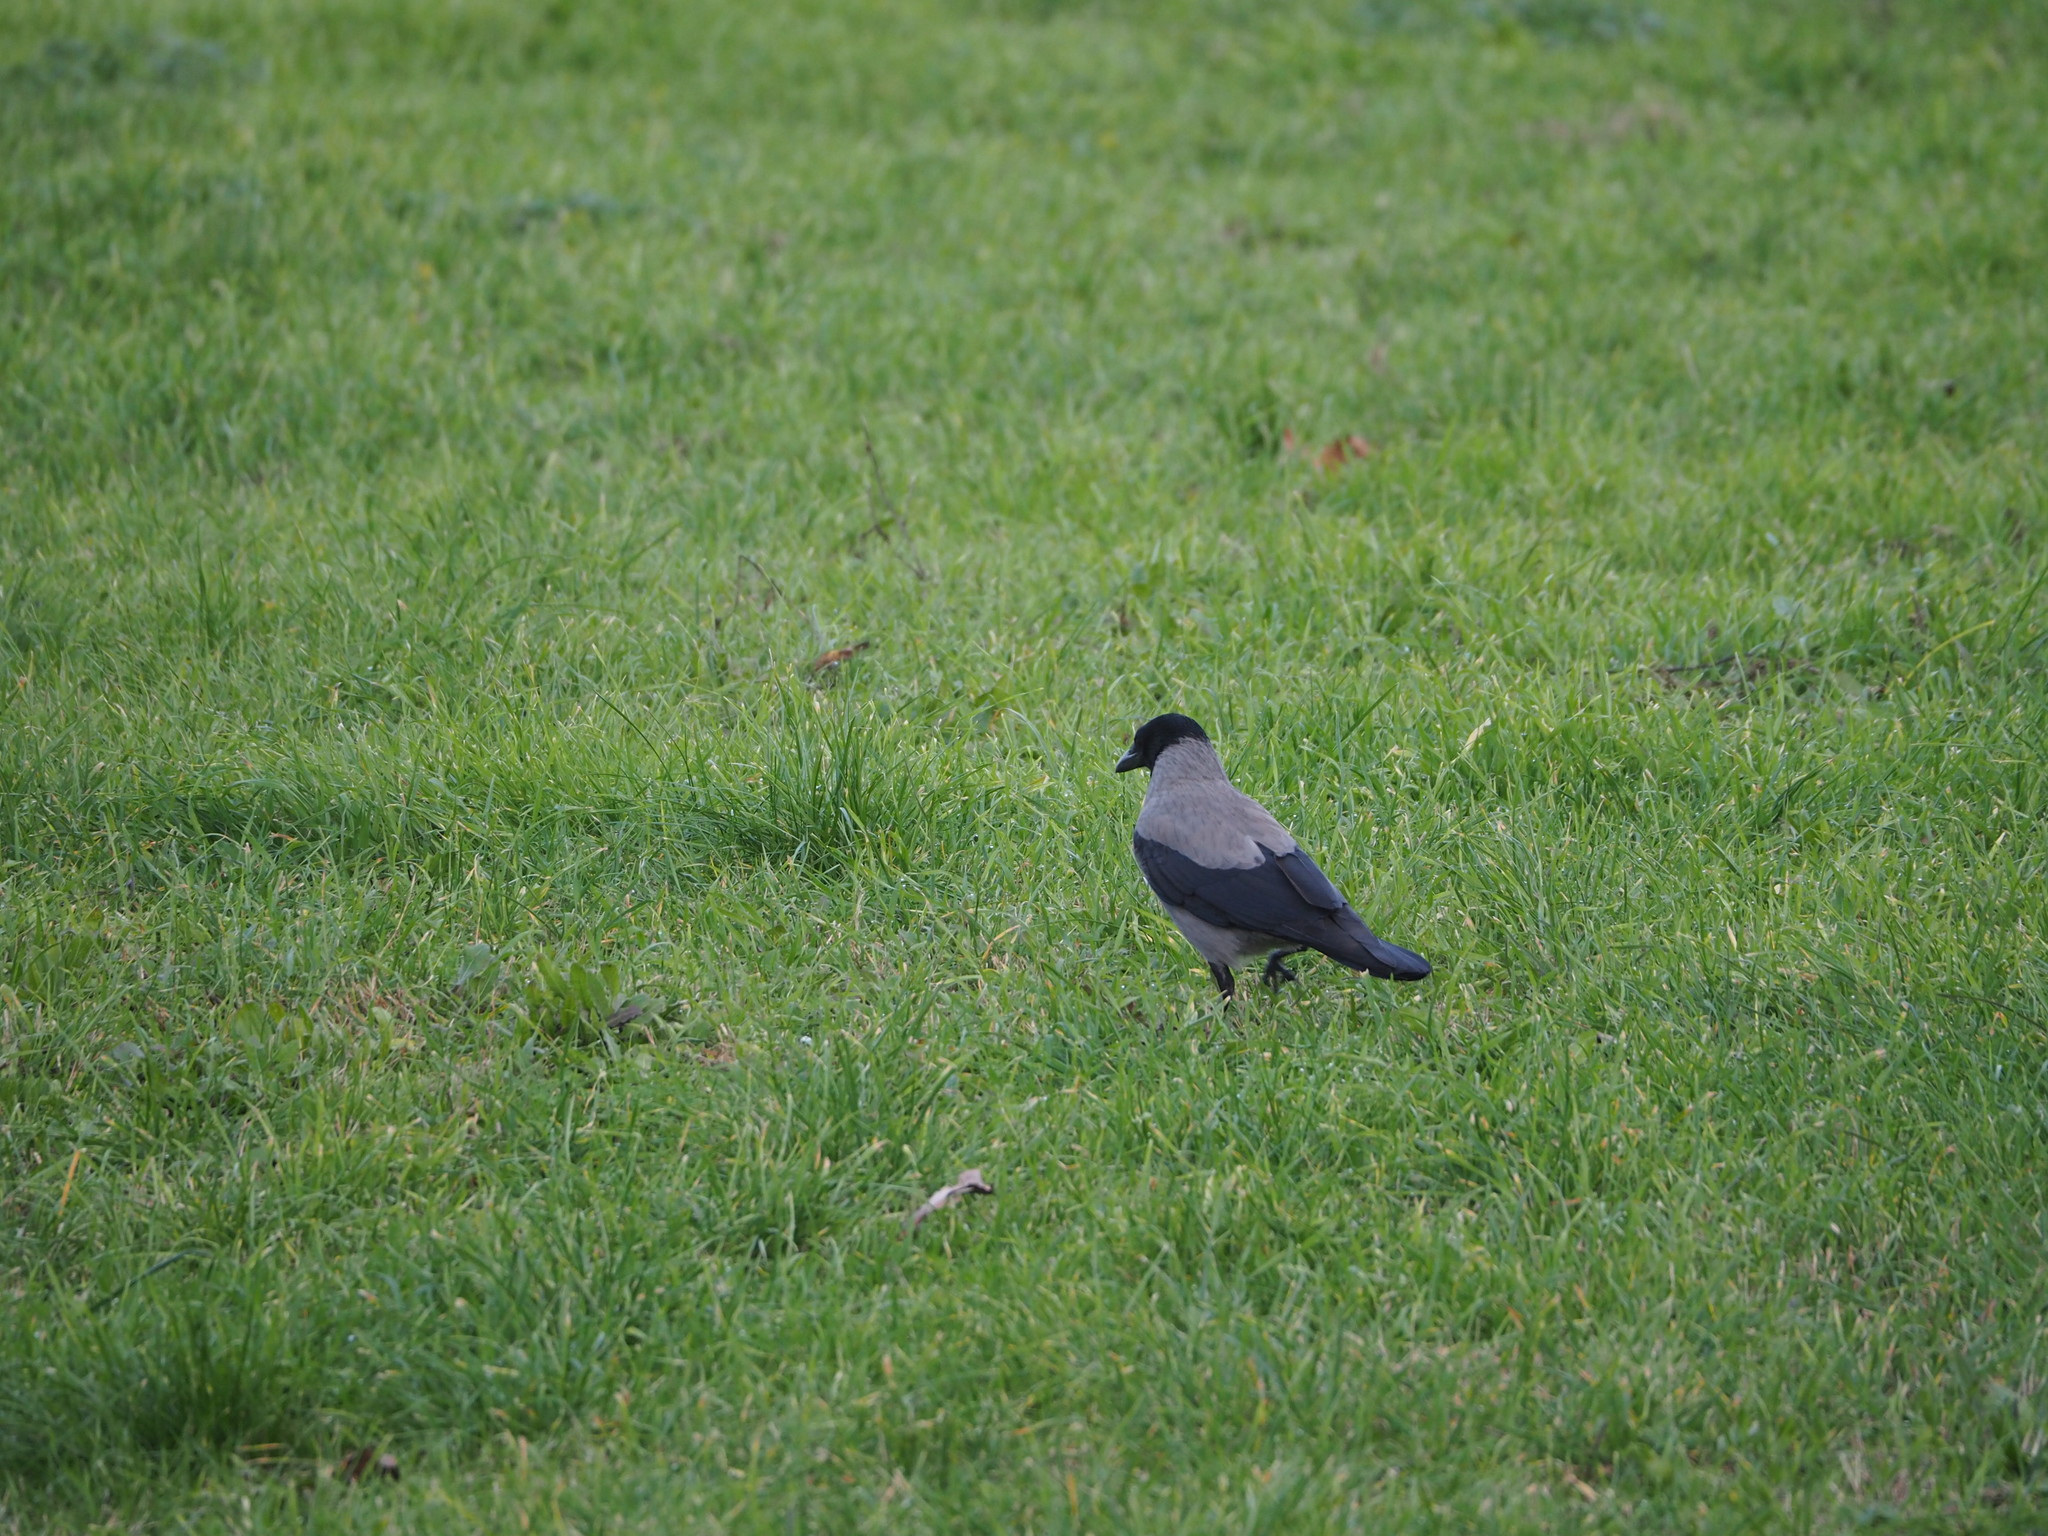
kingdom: Animalia
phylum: Chordata
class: Aves
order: Passeriformes
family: Corvidae
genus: Corvus
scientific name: Corvus cornix
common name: Hooded crow
